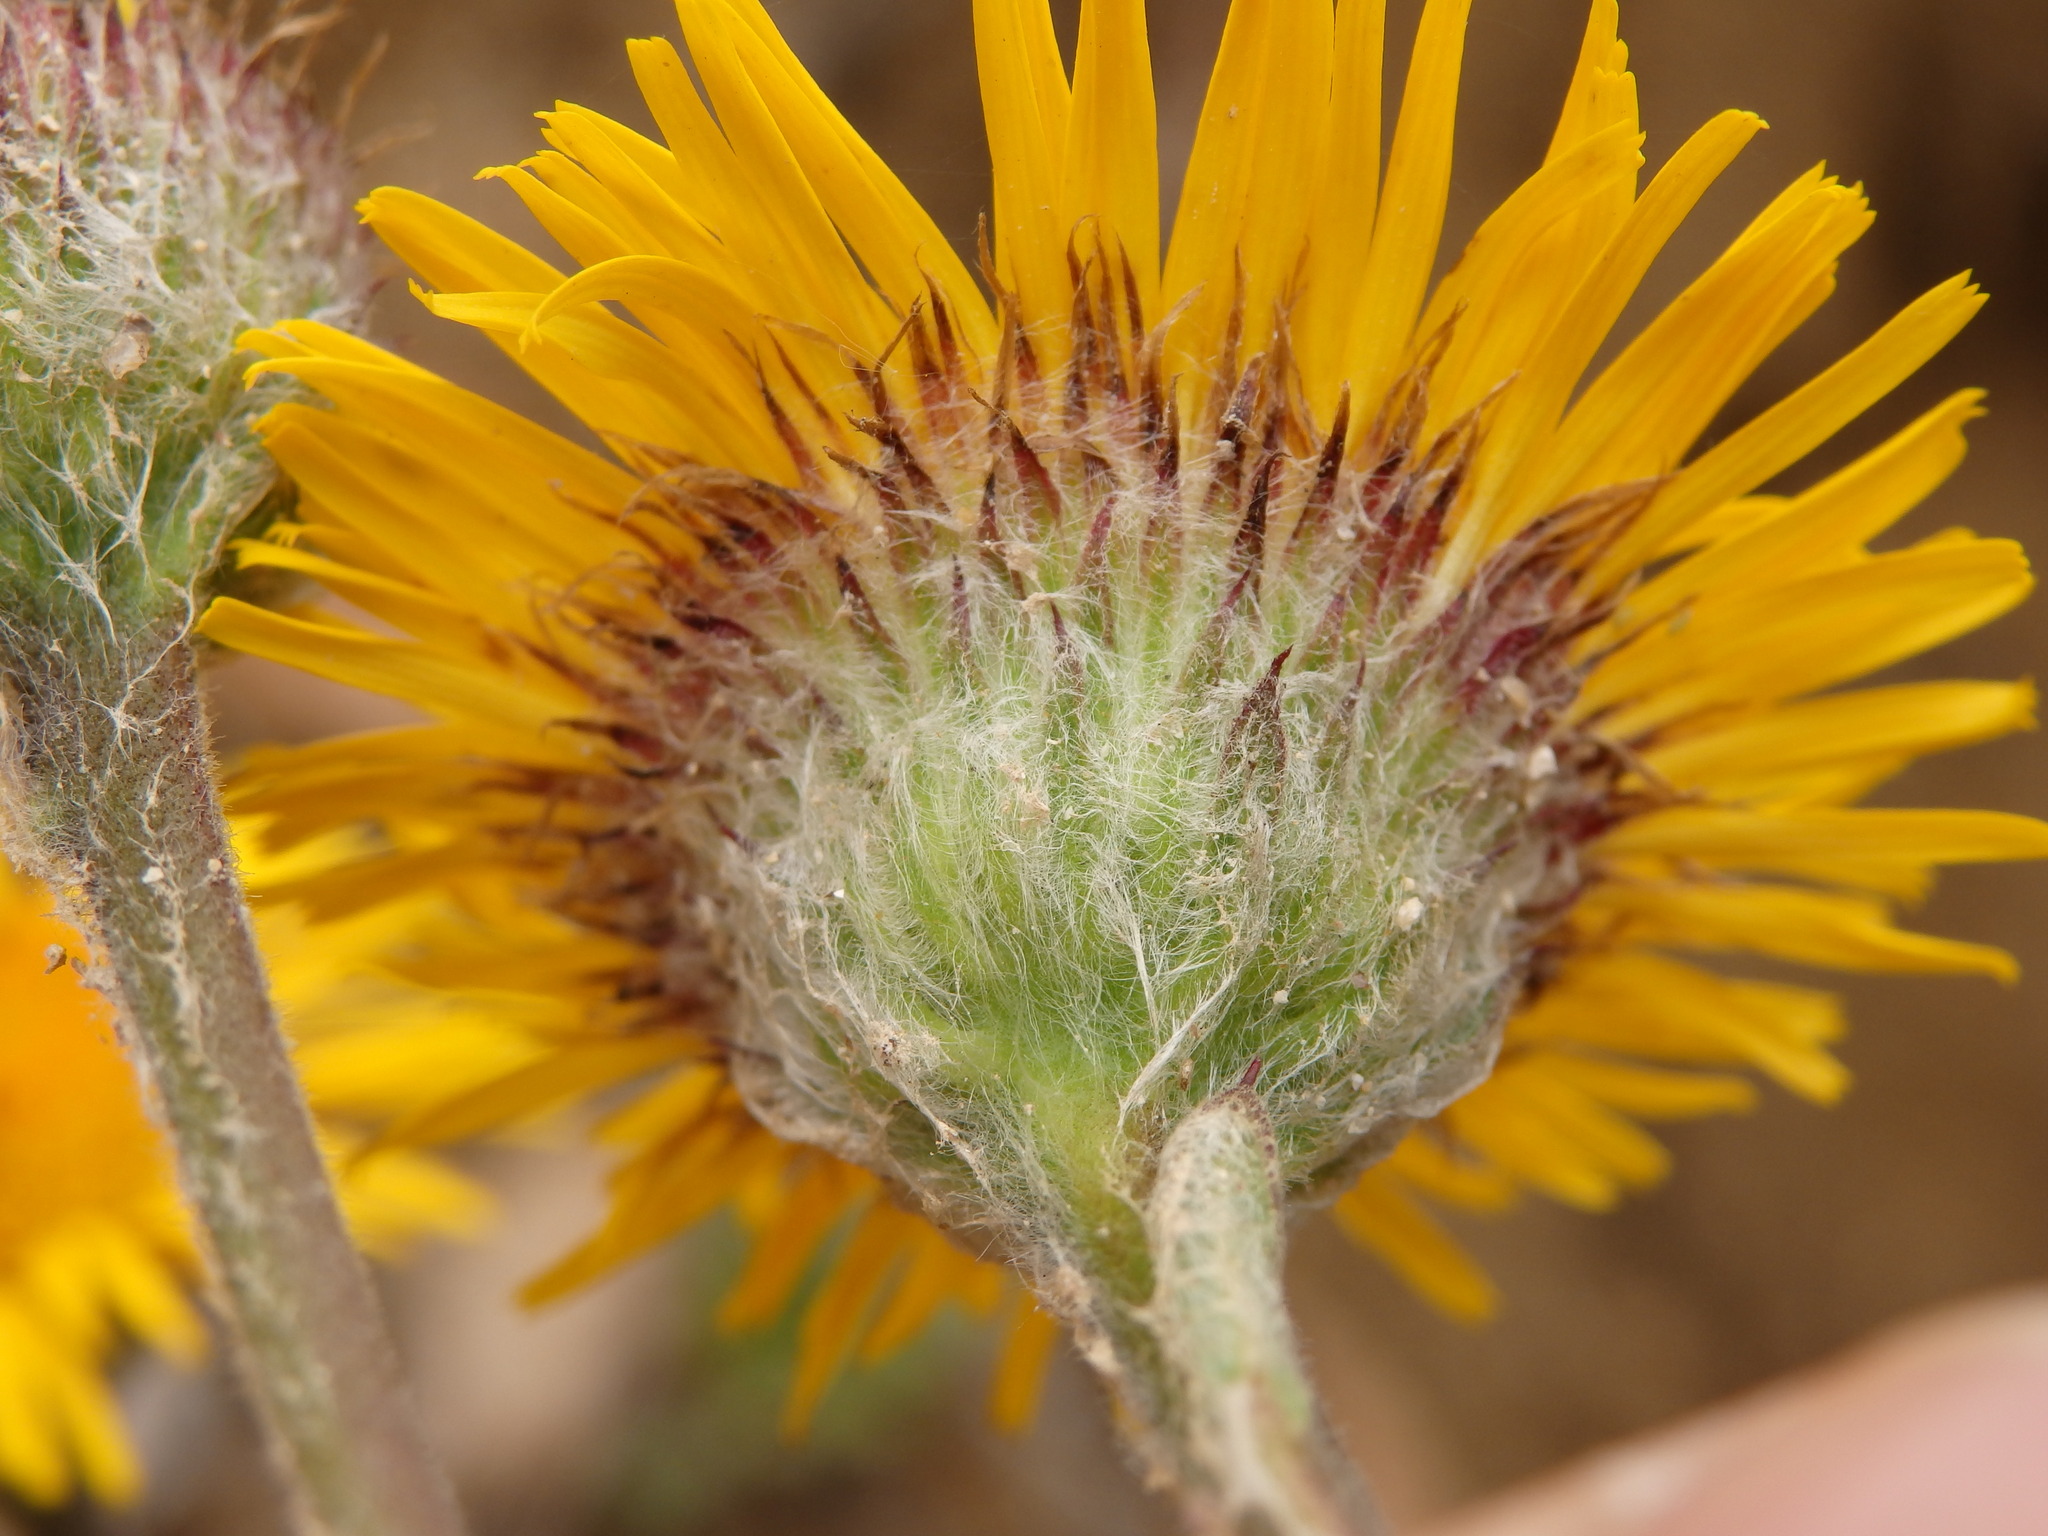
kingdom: Plantae
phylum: Tracheophyta
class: Magnoliopsida
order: Asterales
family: Asteraceae
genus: Pulicaria
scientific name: Pulicaria odora
